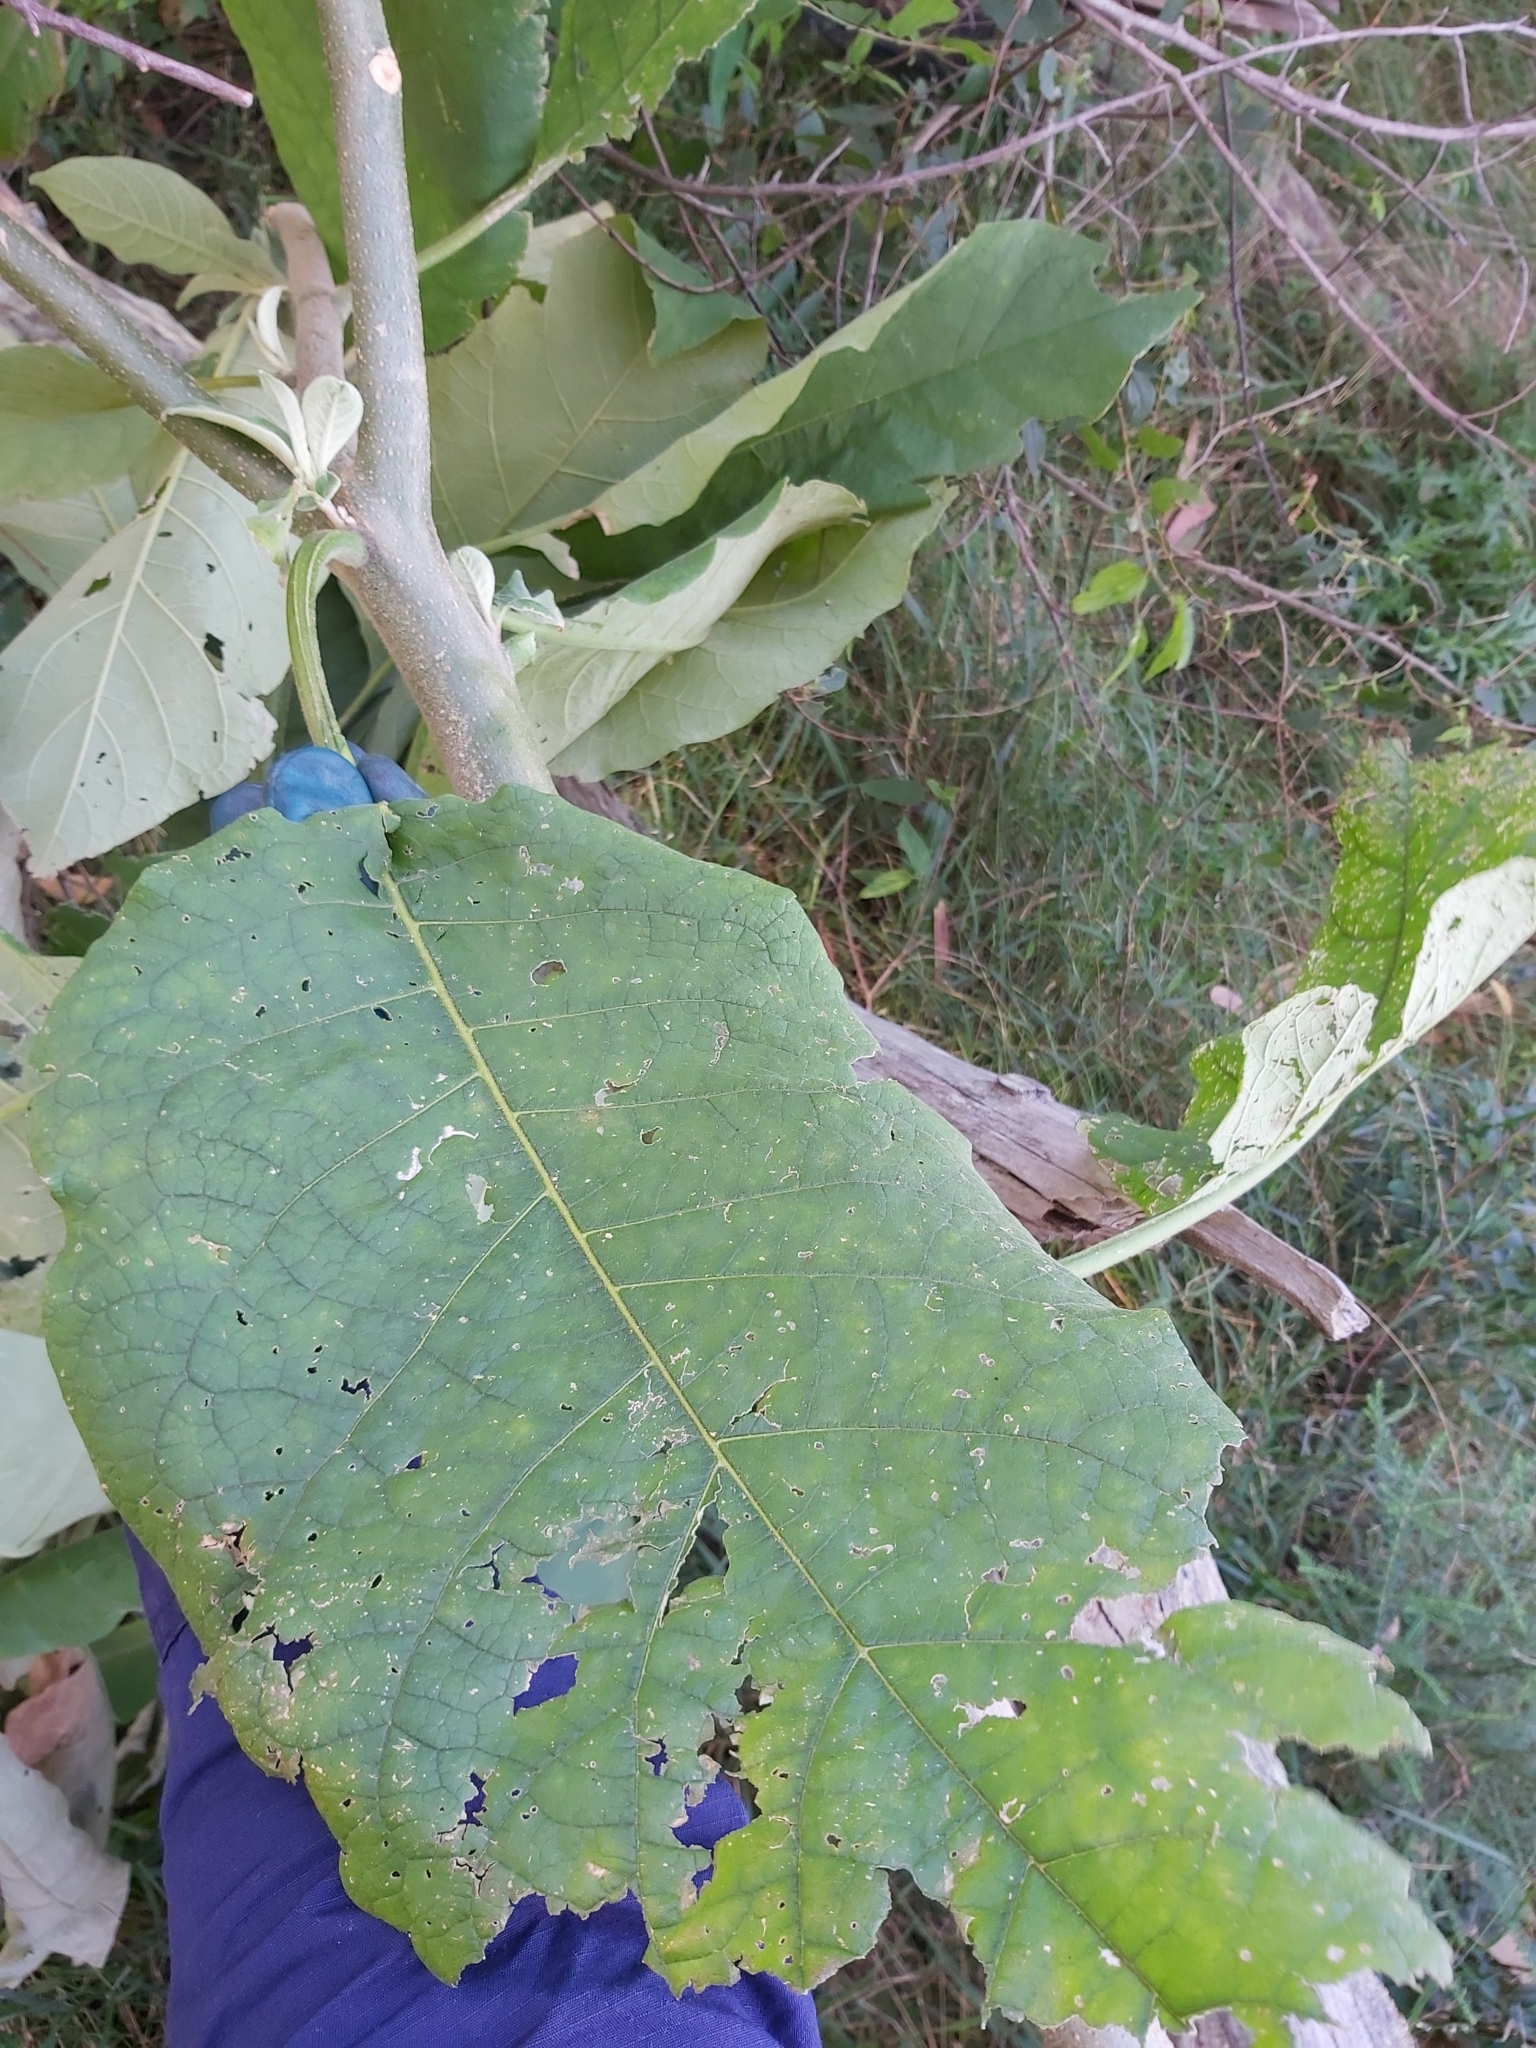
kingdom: Plantae
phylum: Tracheophyta
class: Magnoliopsida
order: Solanales
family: Solanaceae
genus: Solanum
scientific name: Solanum mauritianum
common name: Earleaf nightshade
